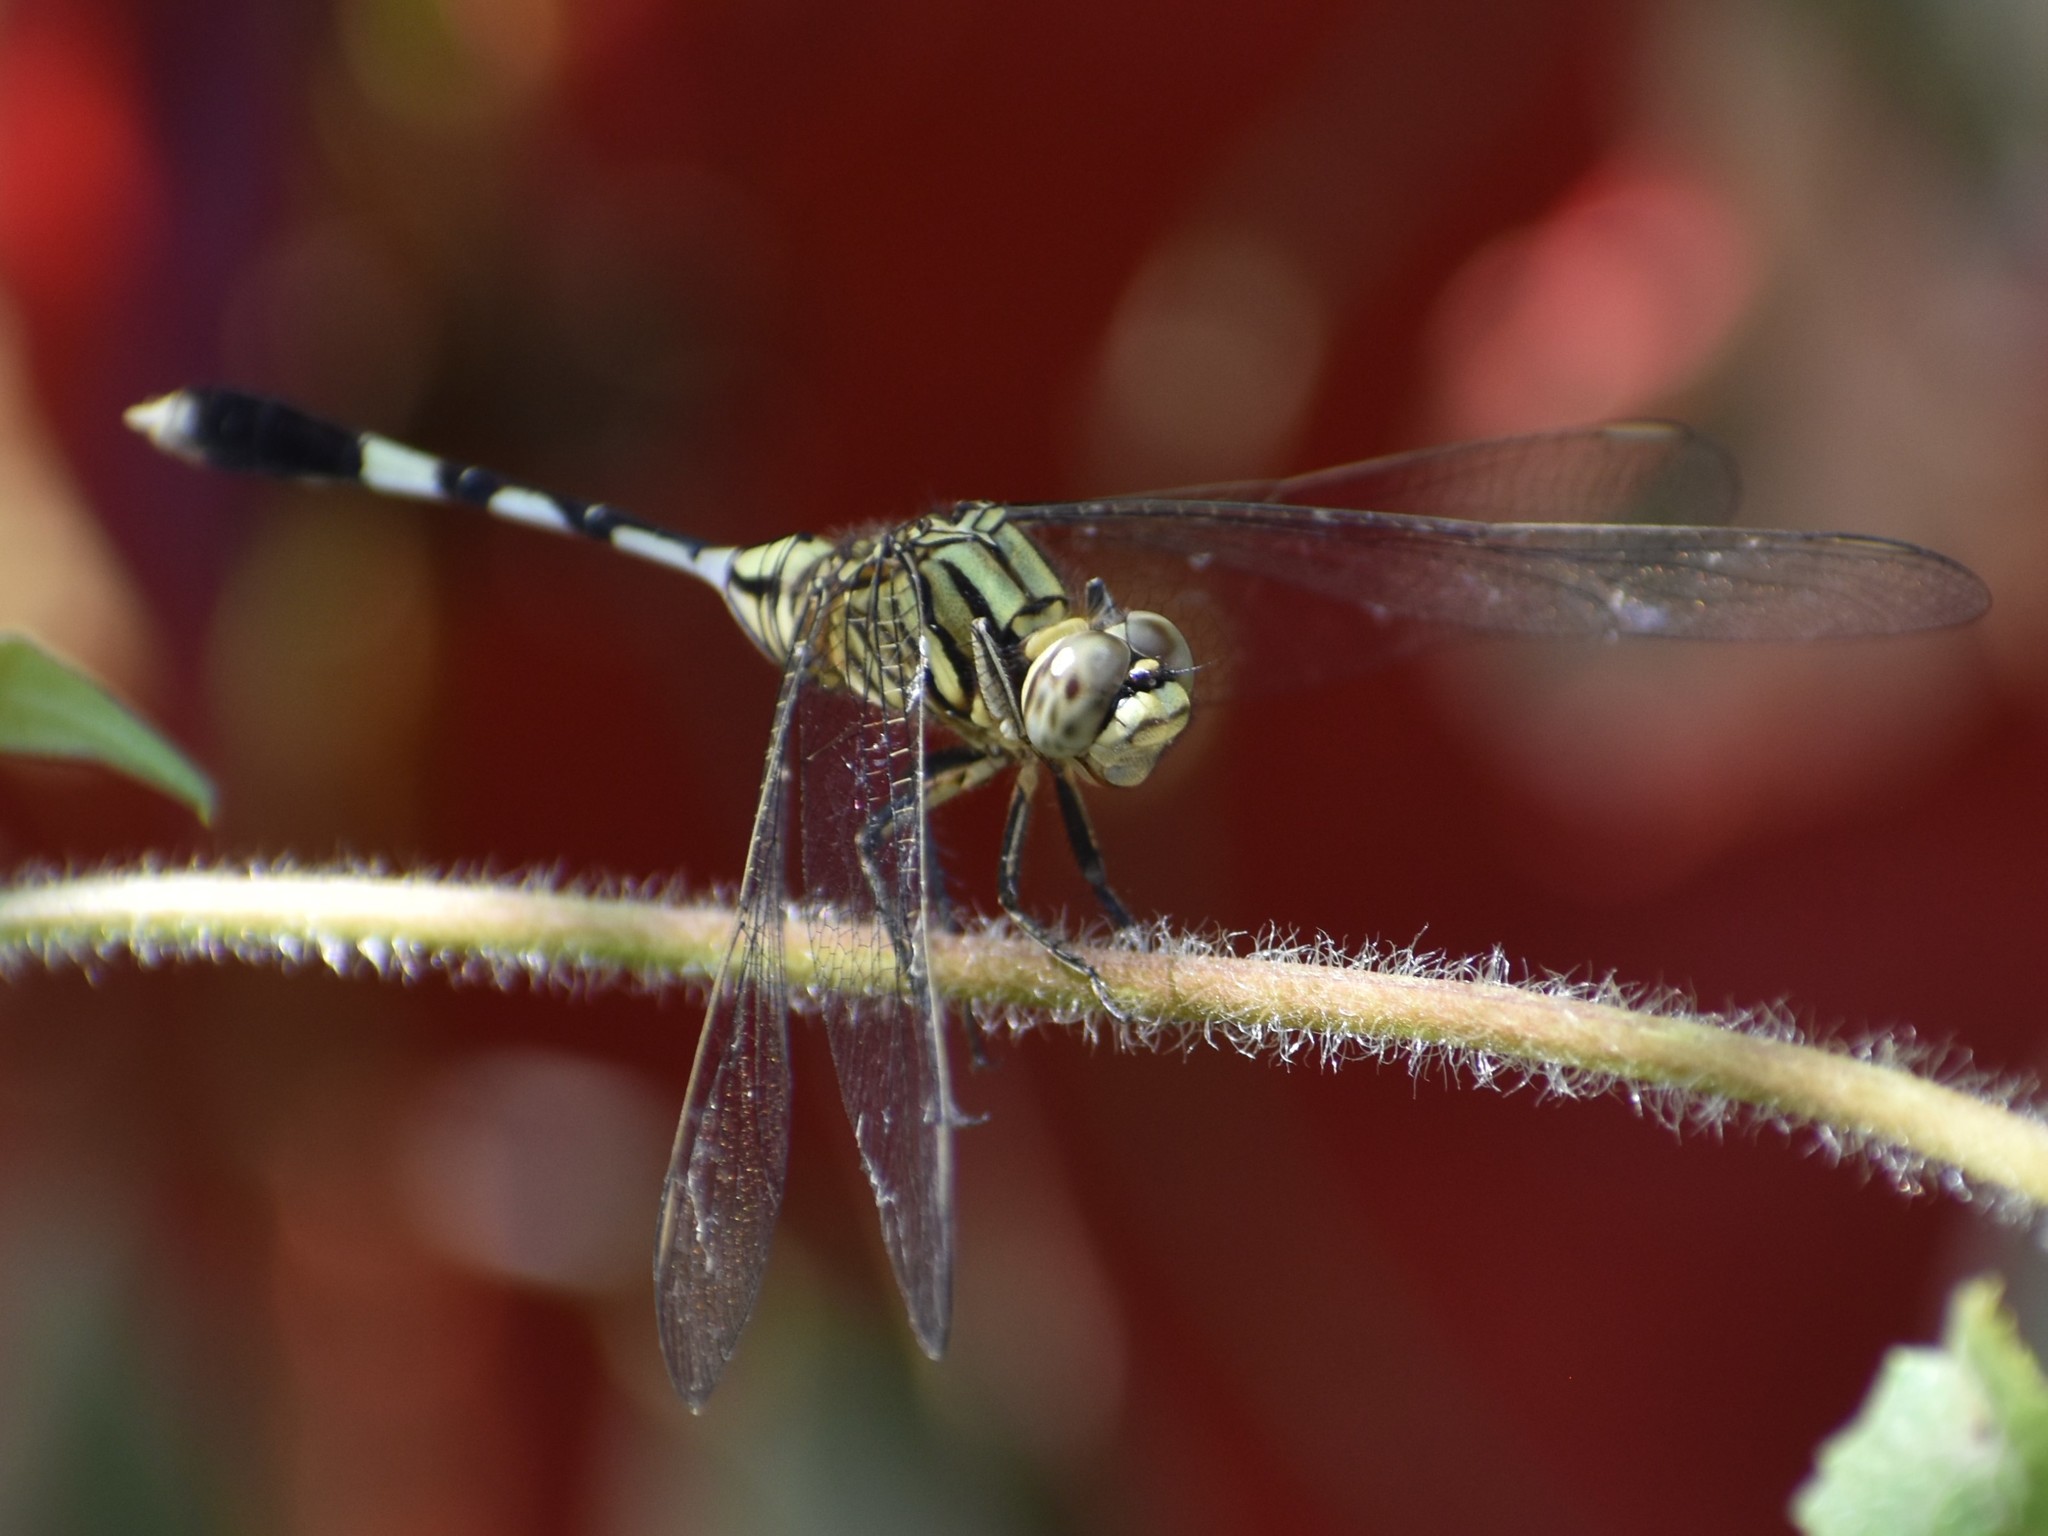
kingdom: Animalia
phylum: Arthropoda
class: Insecta
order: Odonata
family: Libellulidae
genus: Orthetrum
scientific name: Orthetrum sabina
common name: Slender skimmer
